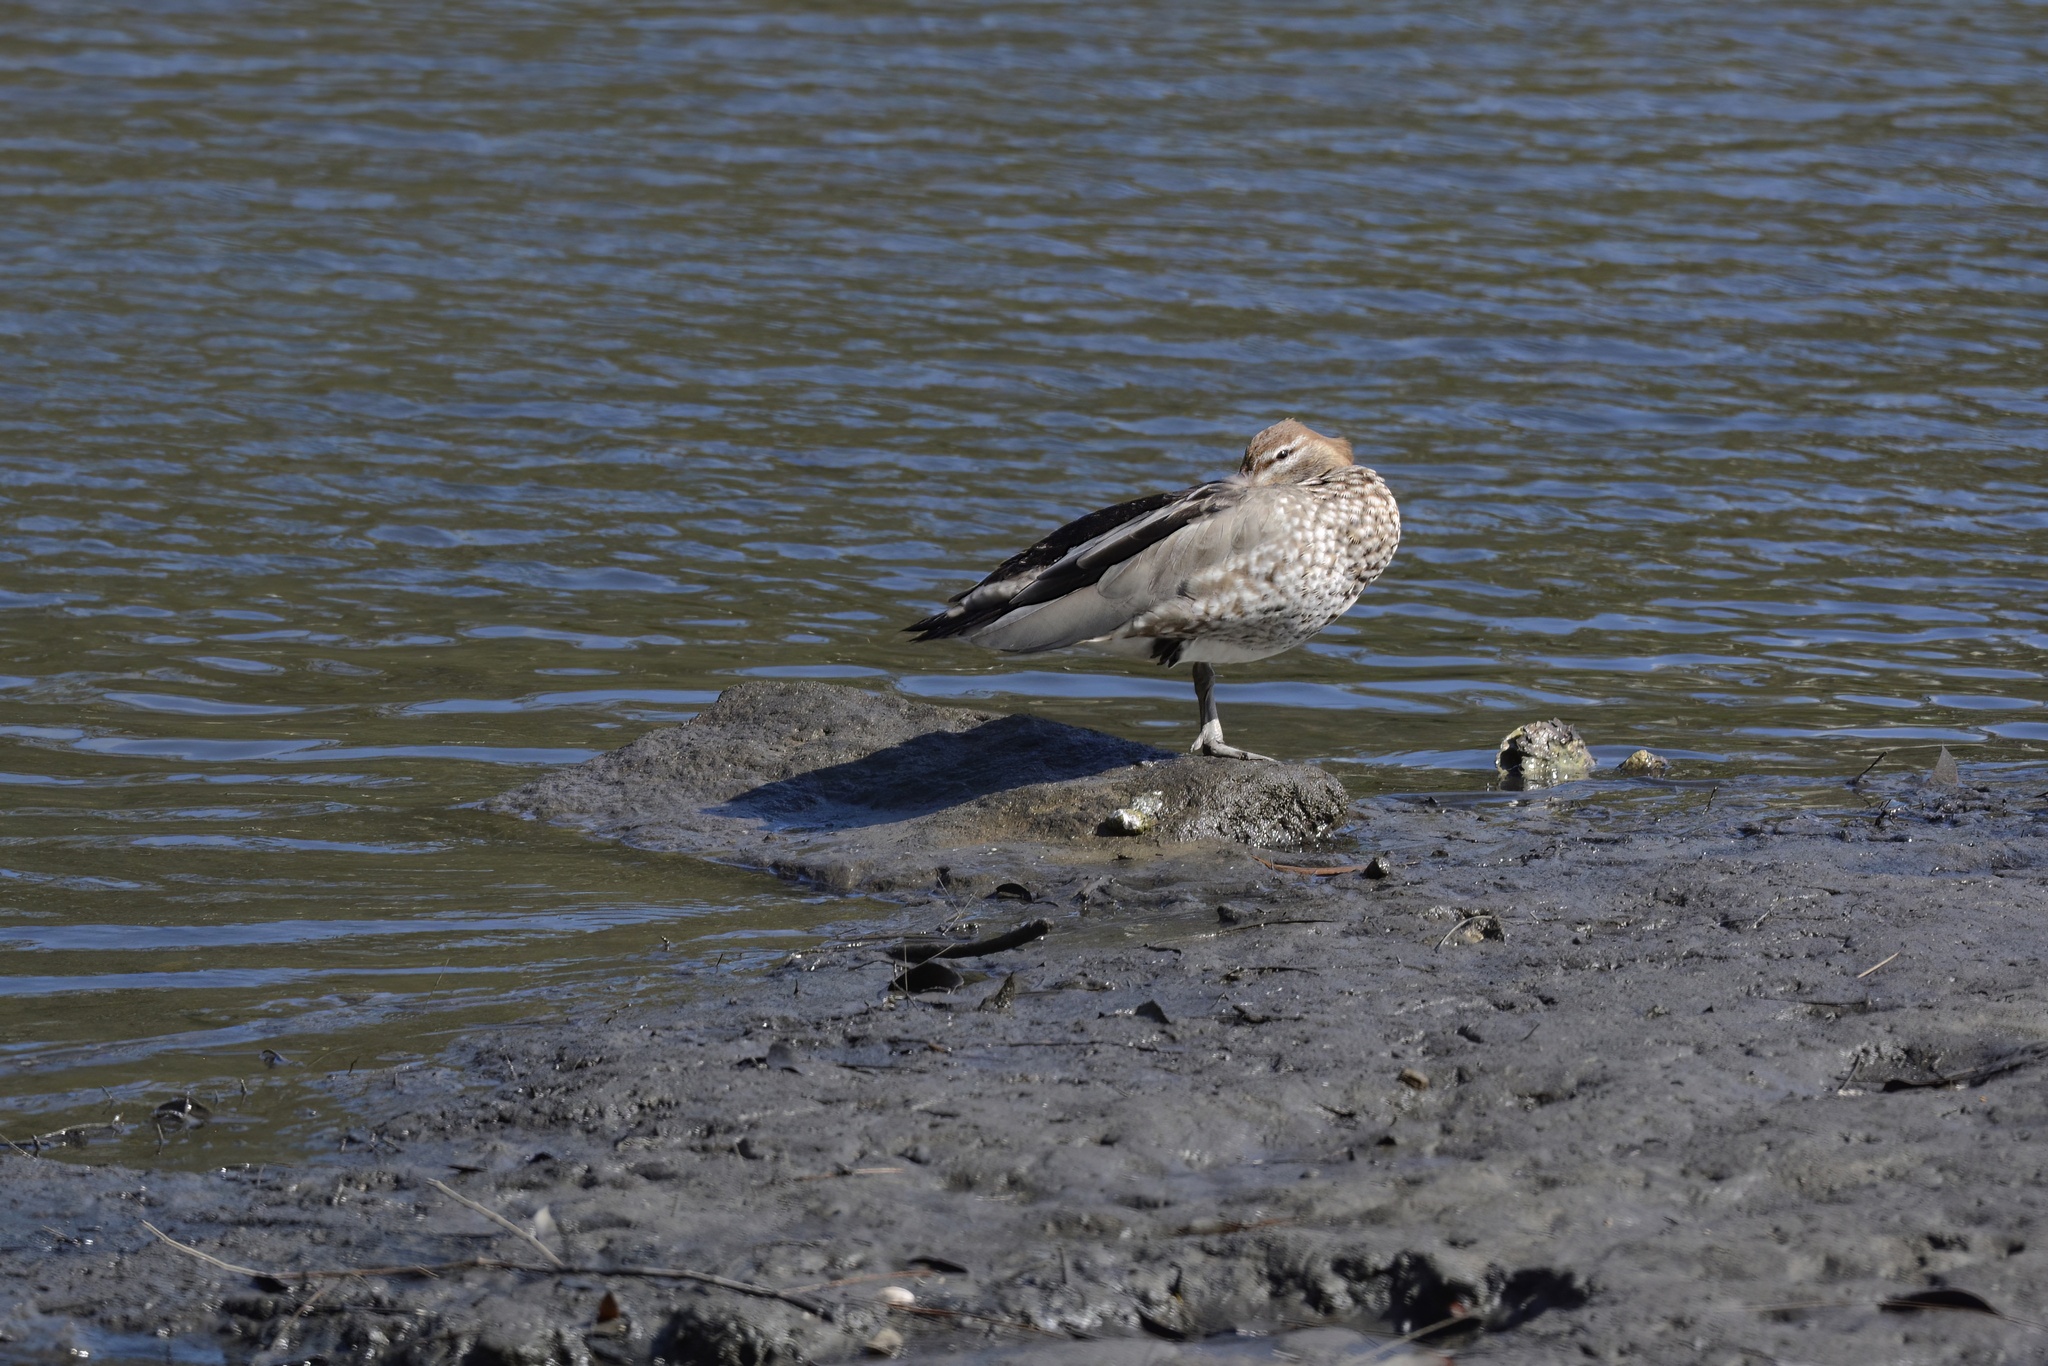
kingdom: Animalia
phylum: Chordata
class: Aves
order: Anseriformes
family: Anatidae
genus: Chenonetta
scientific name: Chenonetta jubata
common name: Maned duck
